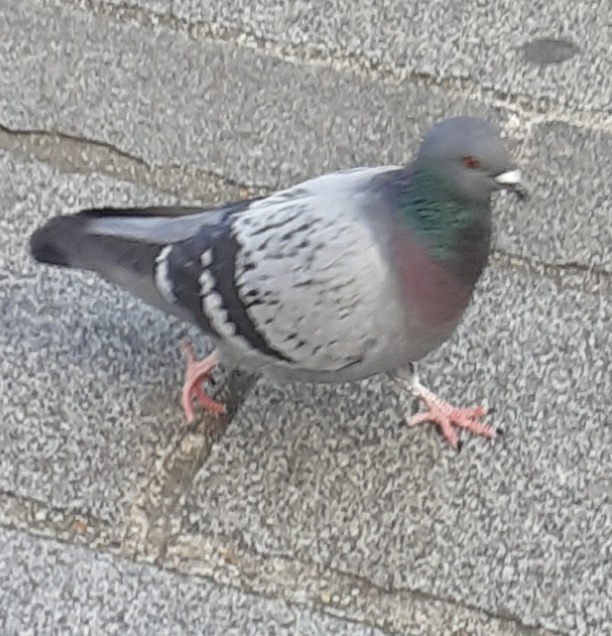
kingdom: Animalia
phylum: Chordata
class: Aves
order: Columbiformes
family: Columbidae
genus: Columba
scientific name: Columba livia
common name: Rock pigeon
